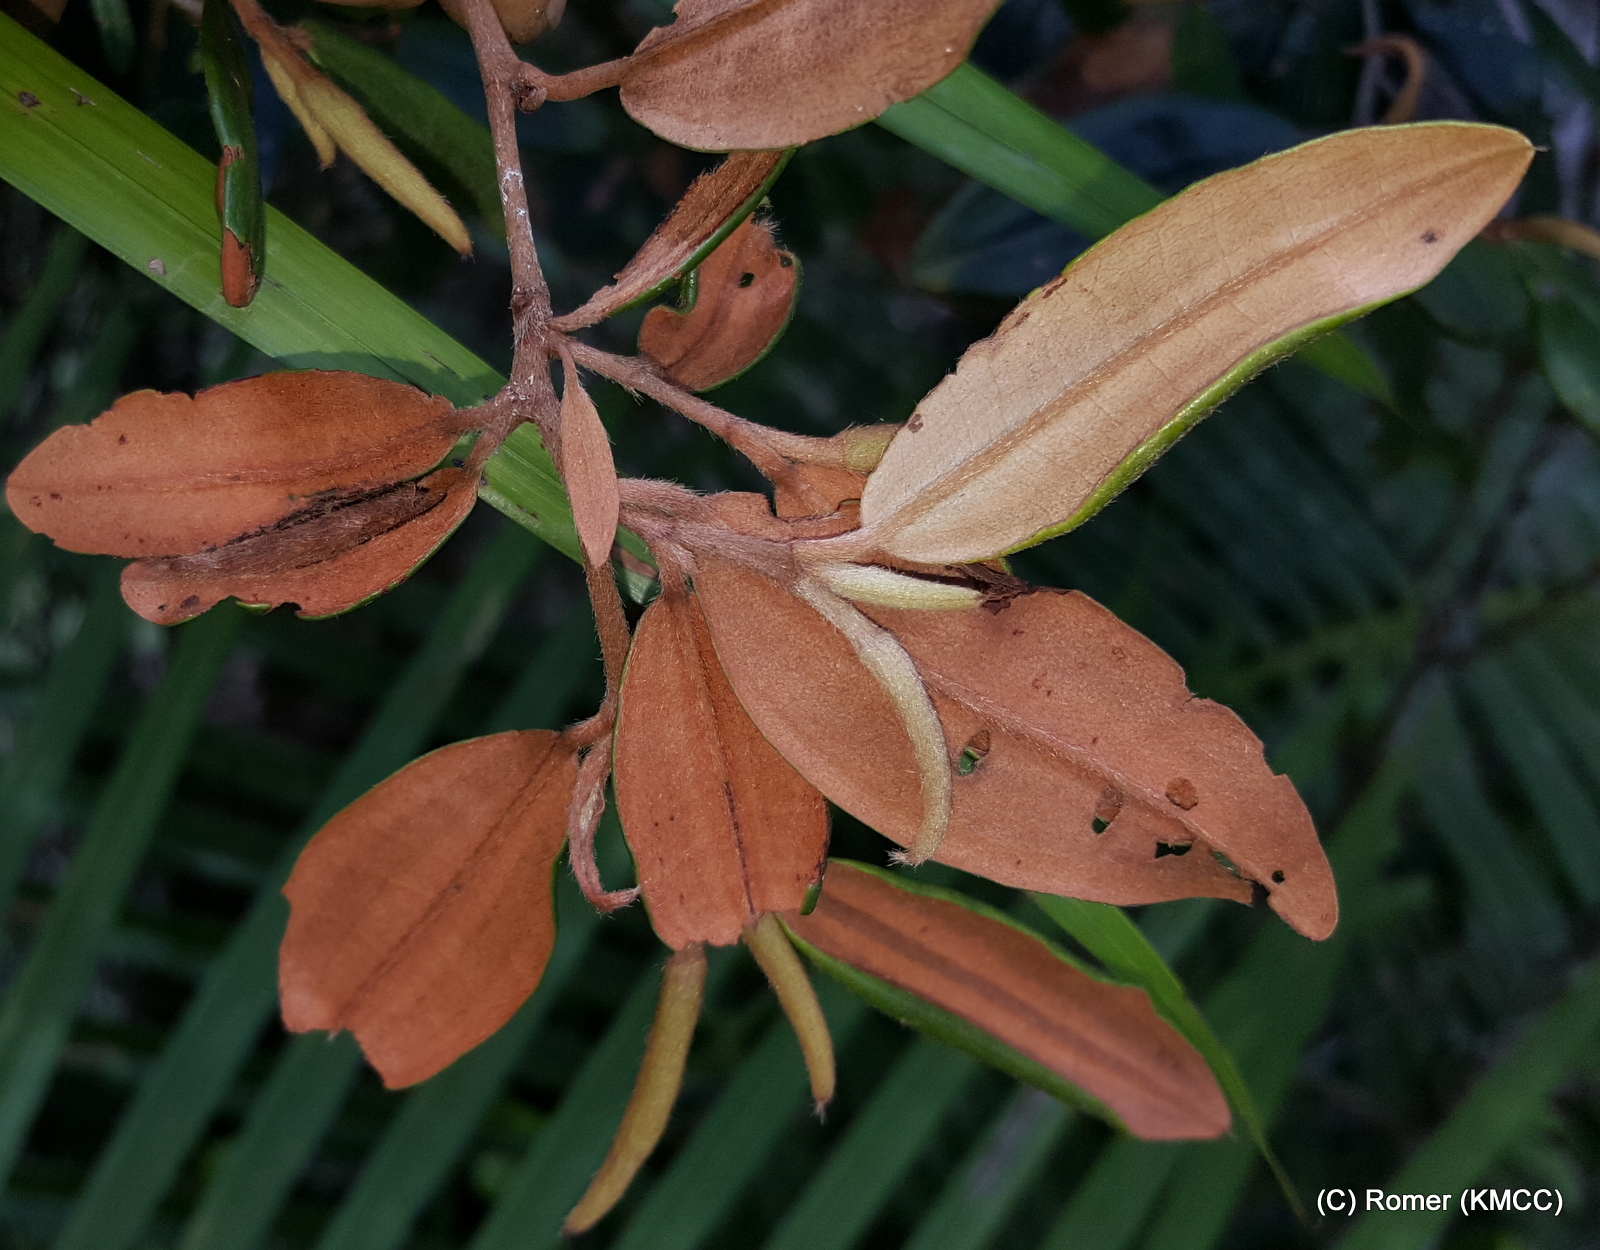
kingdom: Plantae
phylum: Tracheophyta
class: Magnoliopsida
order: Malvales
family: Sarcolaenaceae
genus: Sarcolaena
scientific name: Sarcolaena oblongifolia
